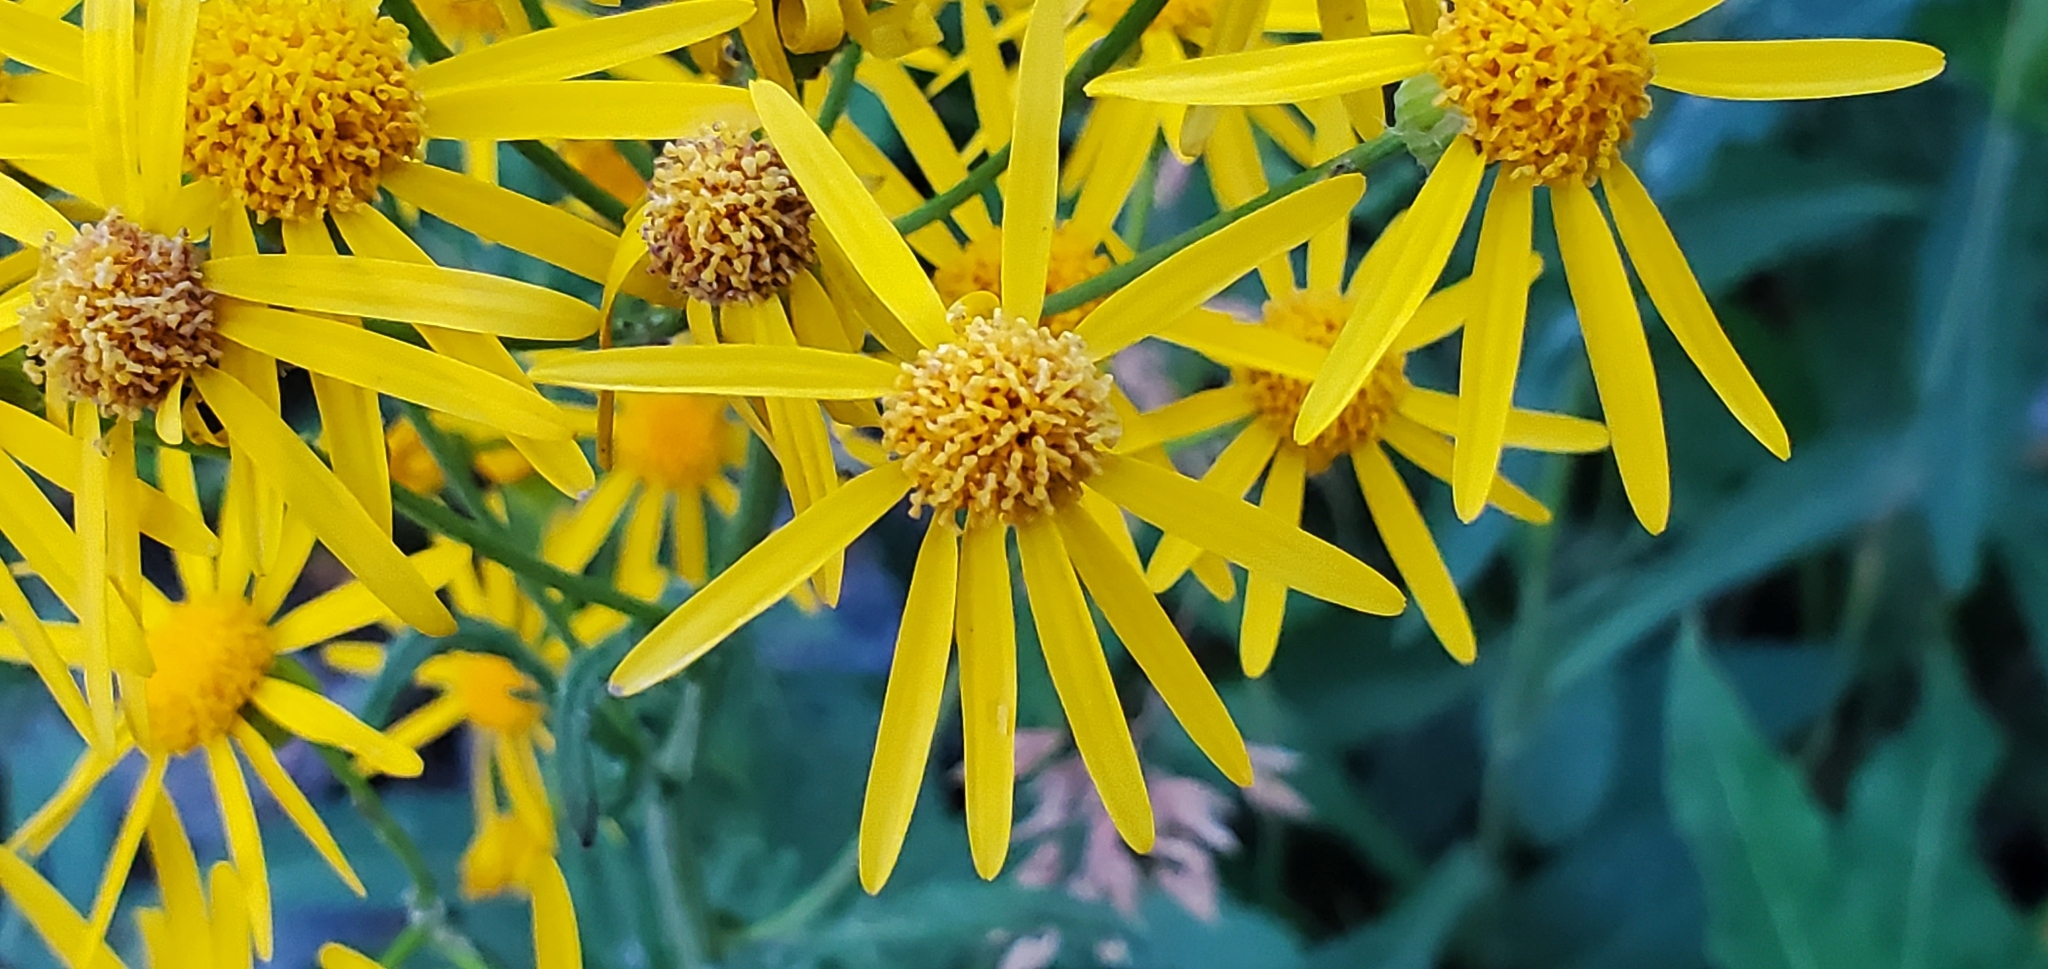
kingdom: Plantae
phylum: Tracheophyta
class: Magnoliopsida
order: Asterales
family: Asteraceae
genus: Packera
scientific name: Packera paupercula
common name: Balsam groundsel
